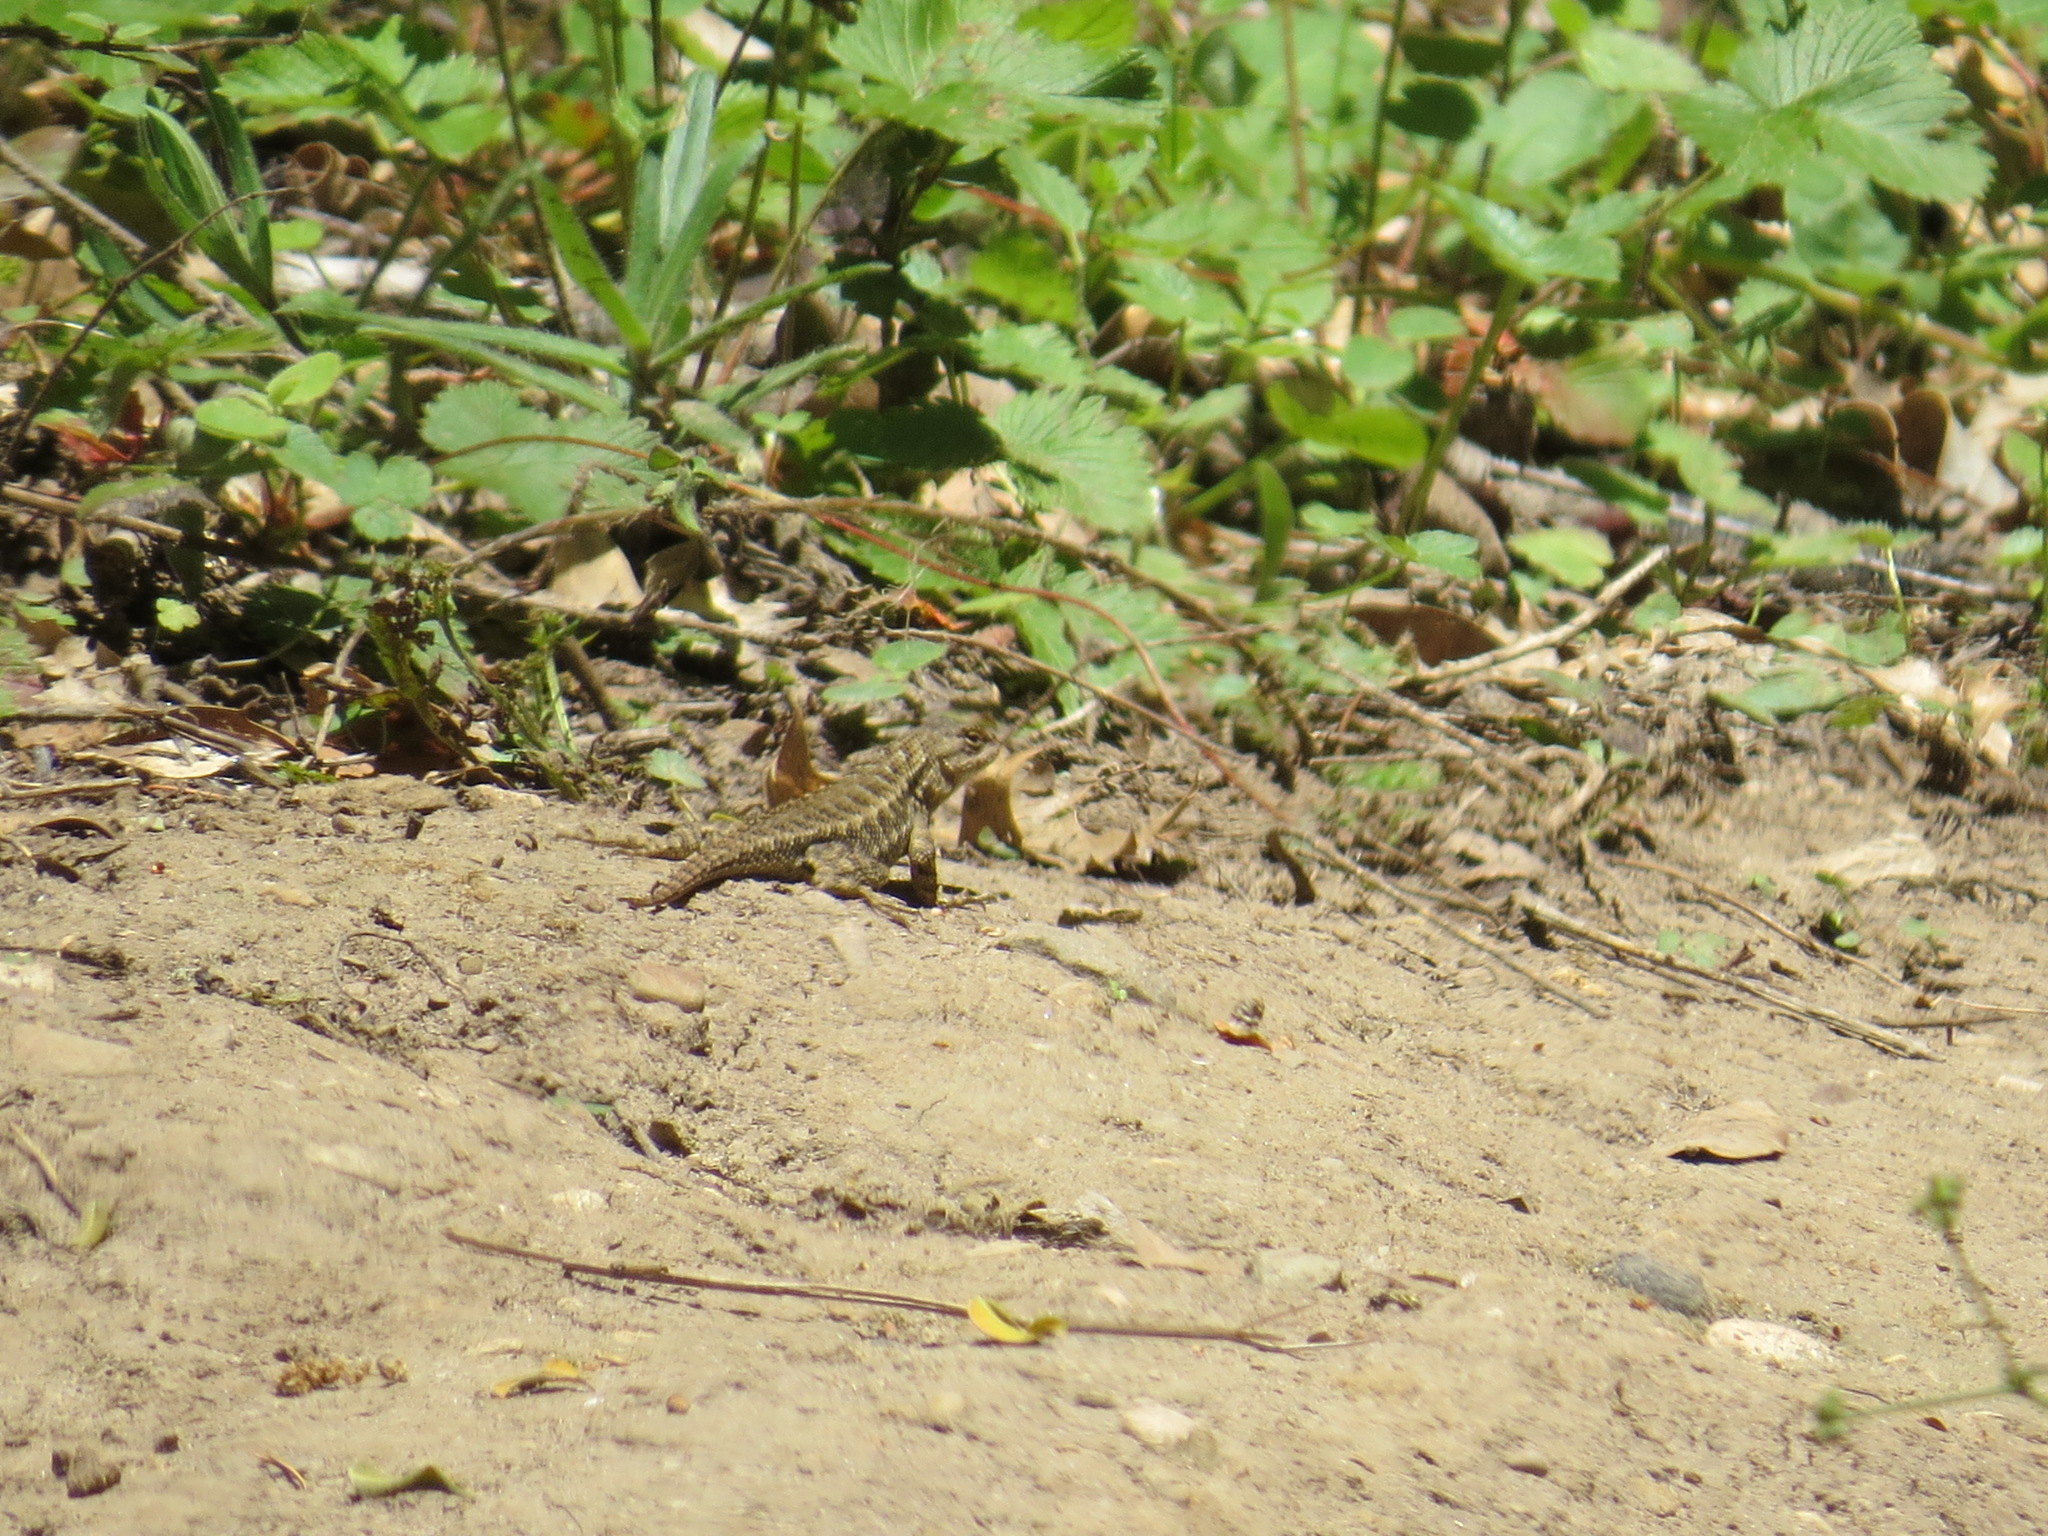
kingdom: Animalia
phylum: Chordata
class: Squamata
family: Phrynosomatidae
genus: Sceloporus
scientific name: Sceloporus occidentalis
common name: Western fence lizard
